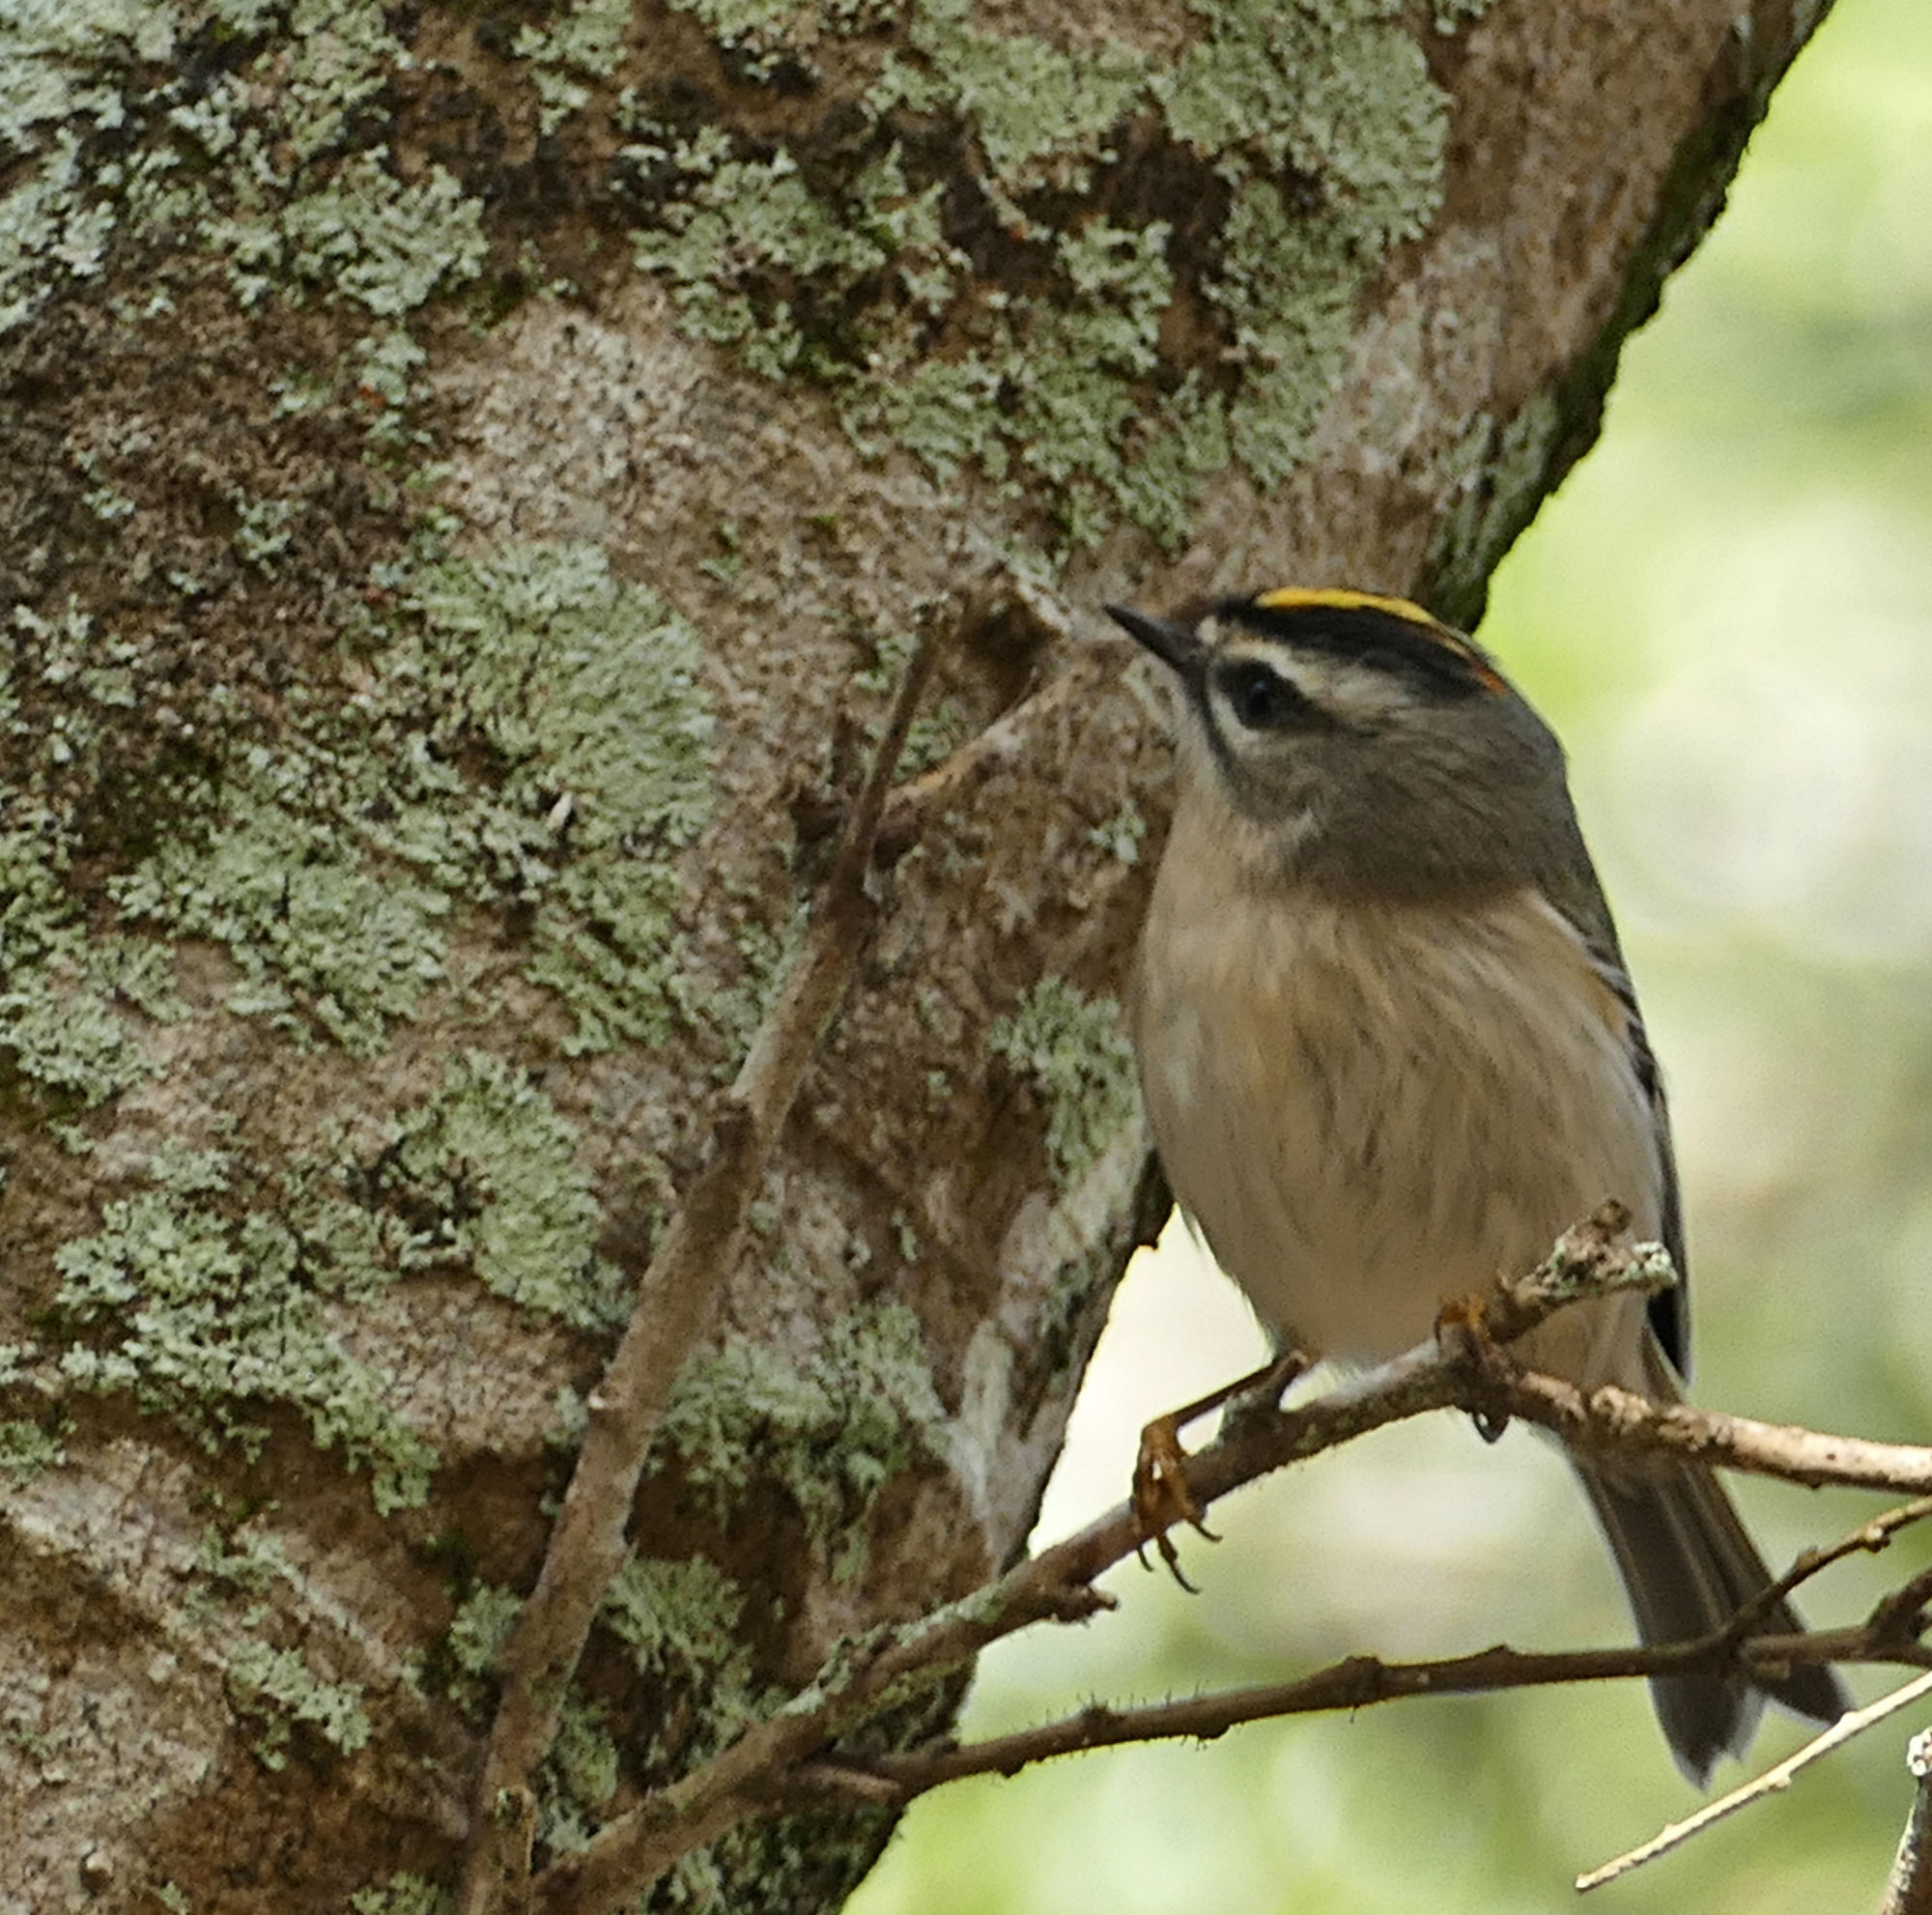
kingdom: Animalia
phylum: Chordata
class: Aves
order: Passeriformes
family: Regulidae
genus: Regulus
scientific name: Regulus satrapa
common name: Golden-crowned kinglet
